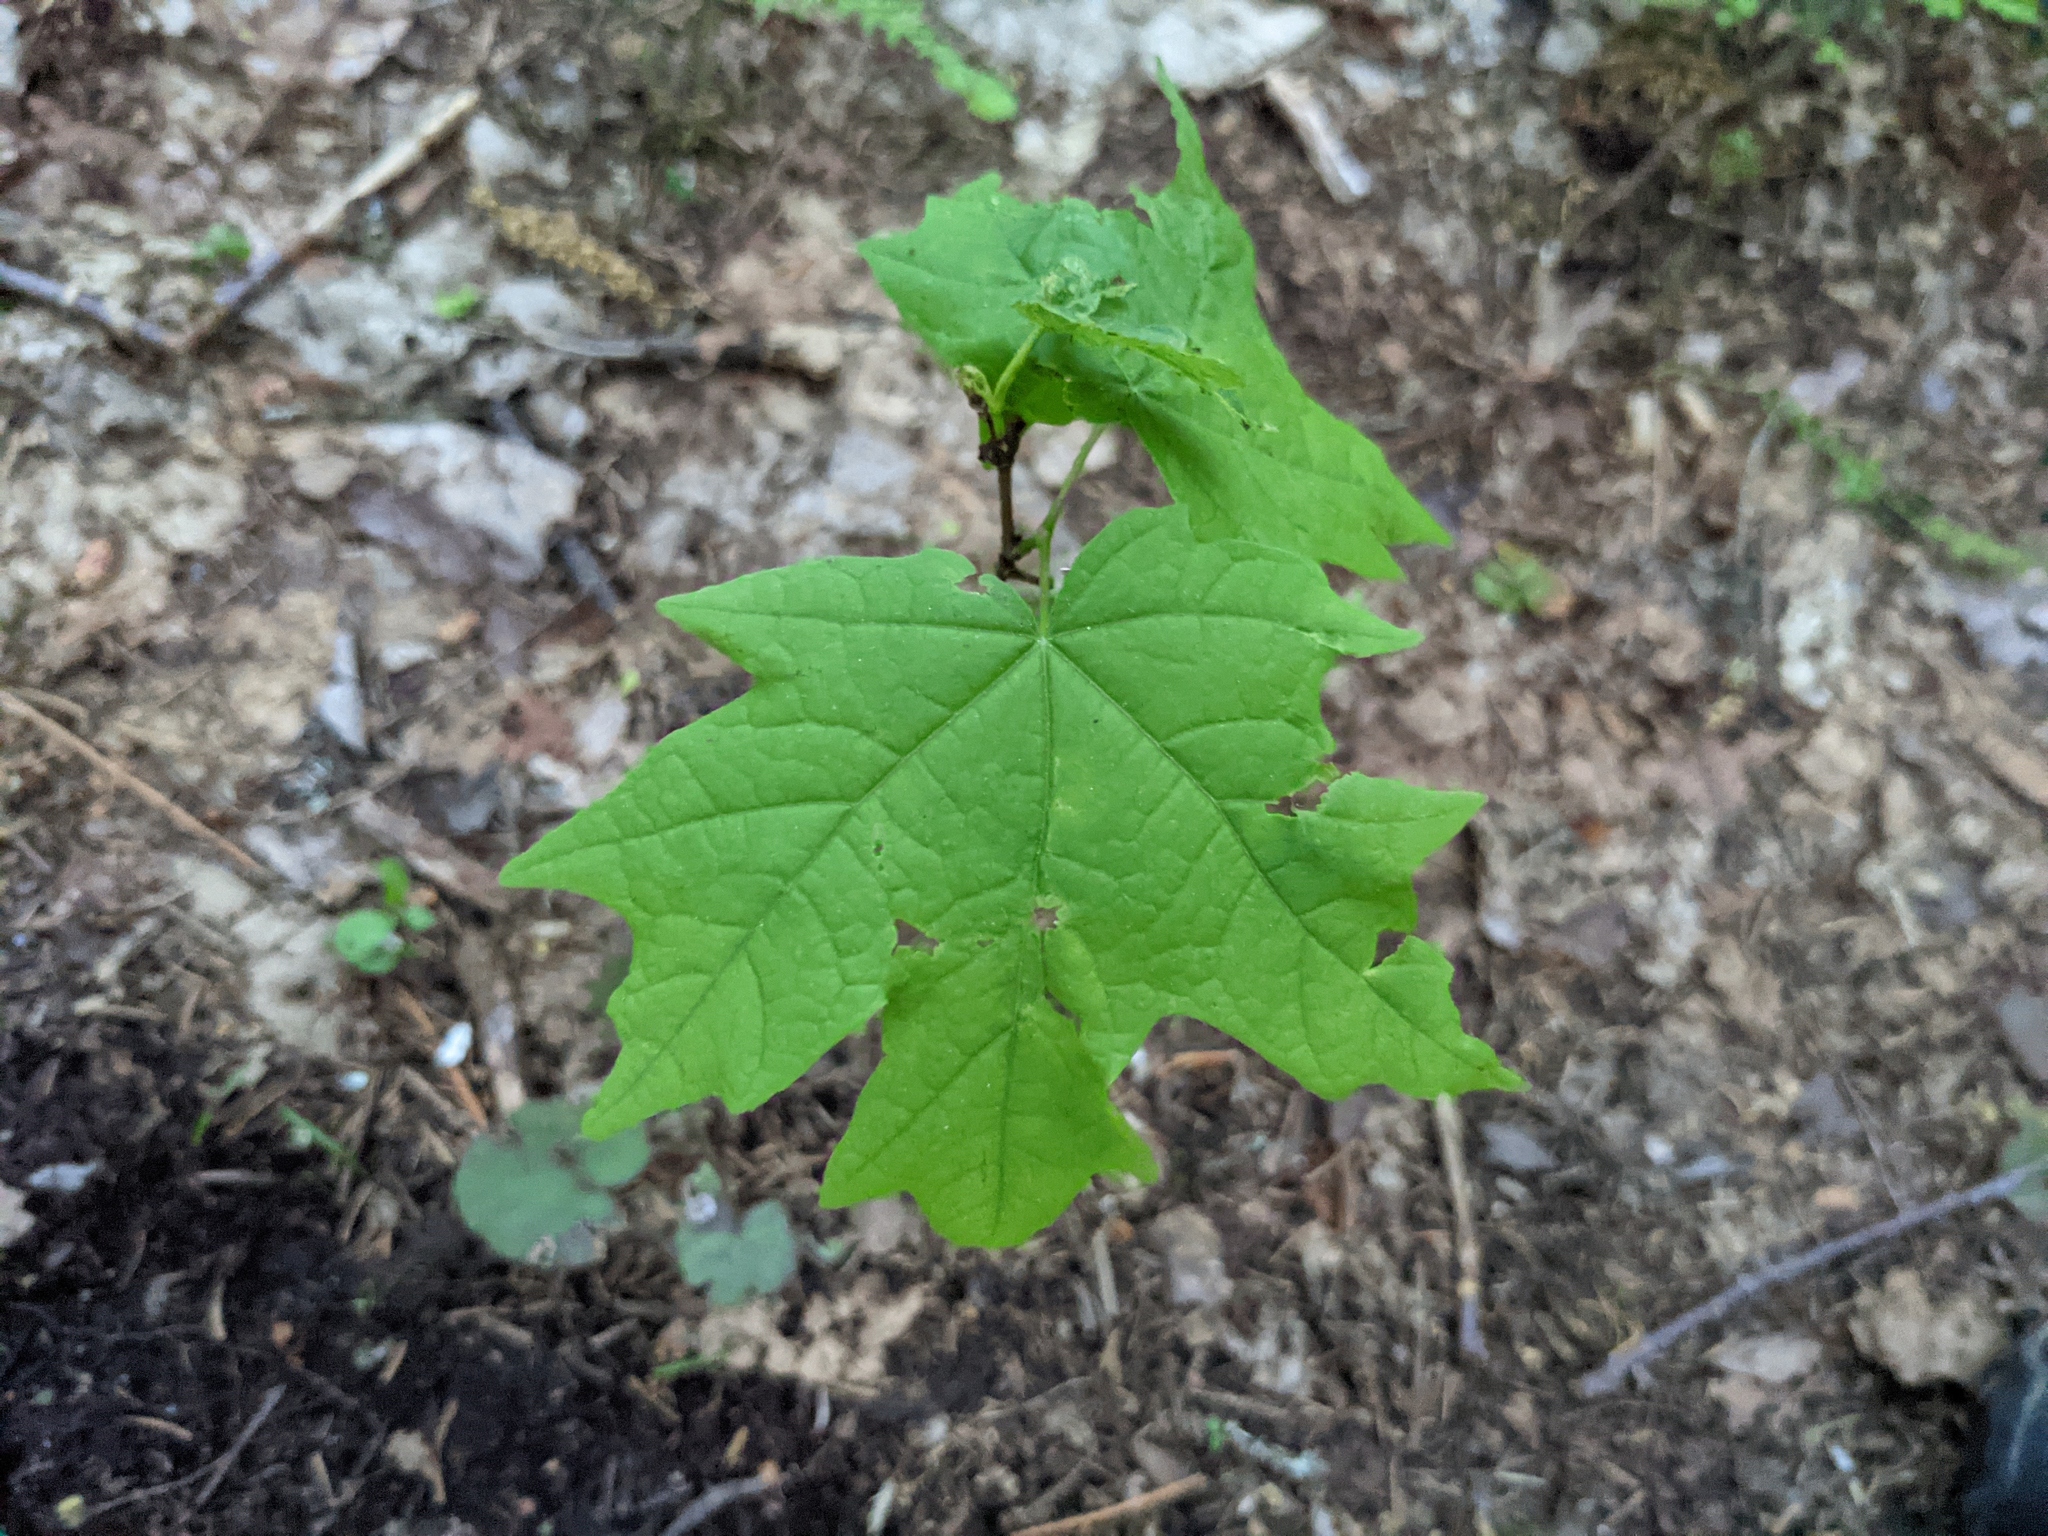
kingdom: Plantae
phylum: Tracheophyta
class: Magnoliopsida
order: Sapindales
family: Sapindaceae
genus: Acer
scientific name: Acer saccharum
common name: Sugar maple
